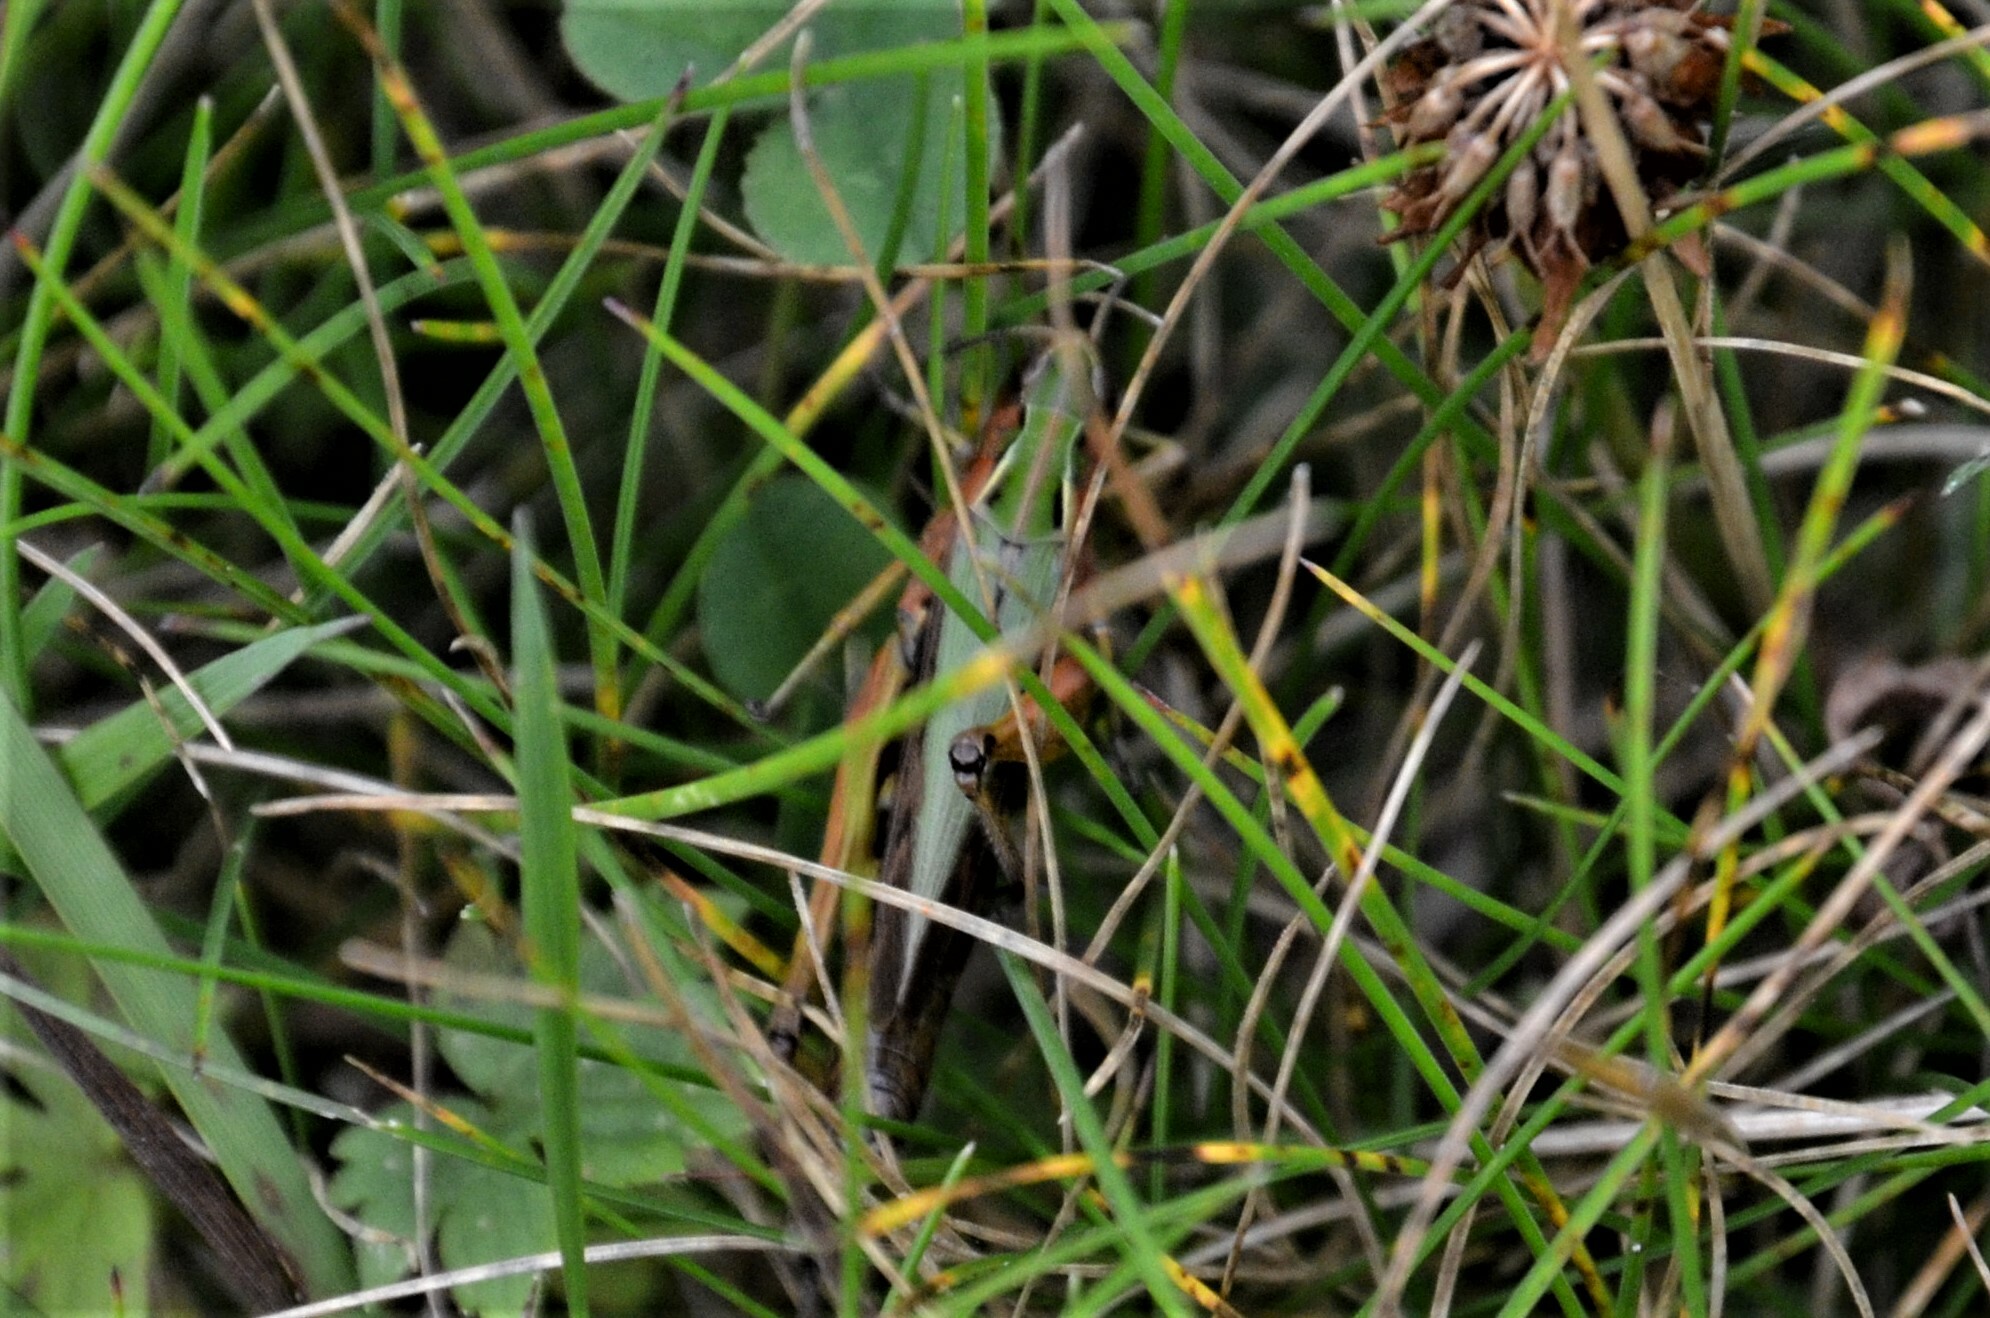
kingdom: Animalia
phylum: Arthropoda
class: Insecta
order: Orthoptera
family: Acrididae
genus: Omocestus
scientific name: Omocestus viridulus
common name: Common green grasshopper
